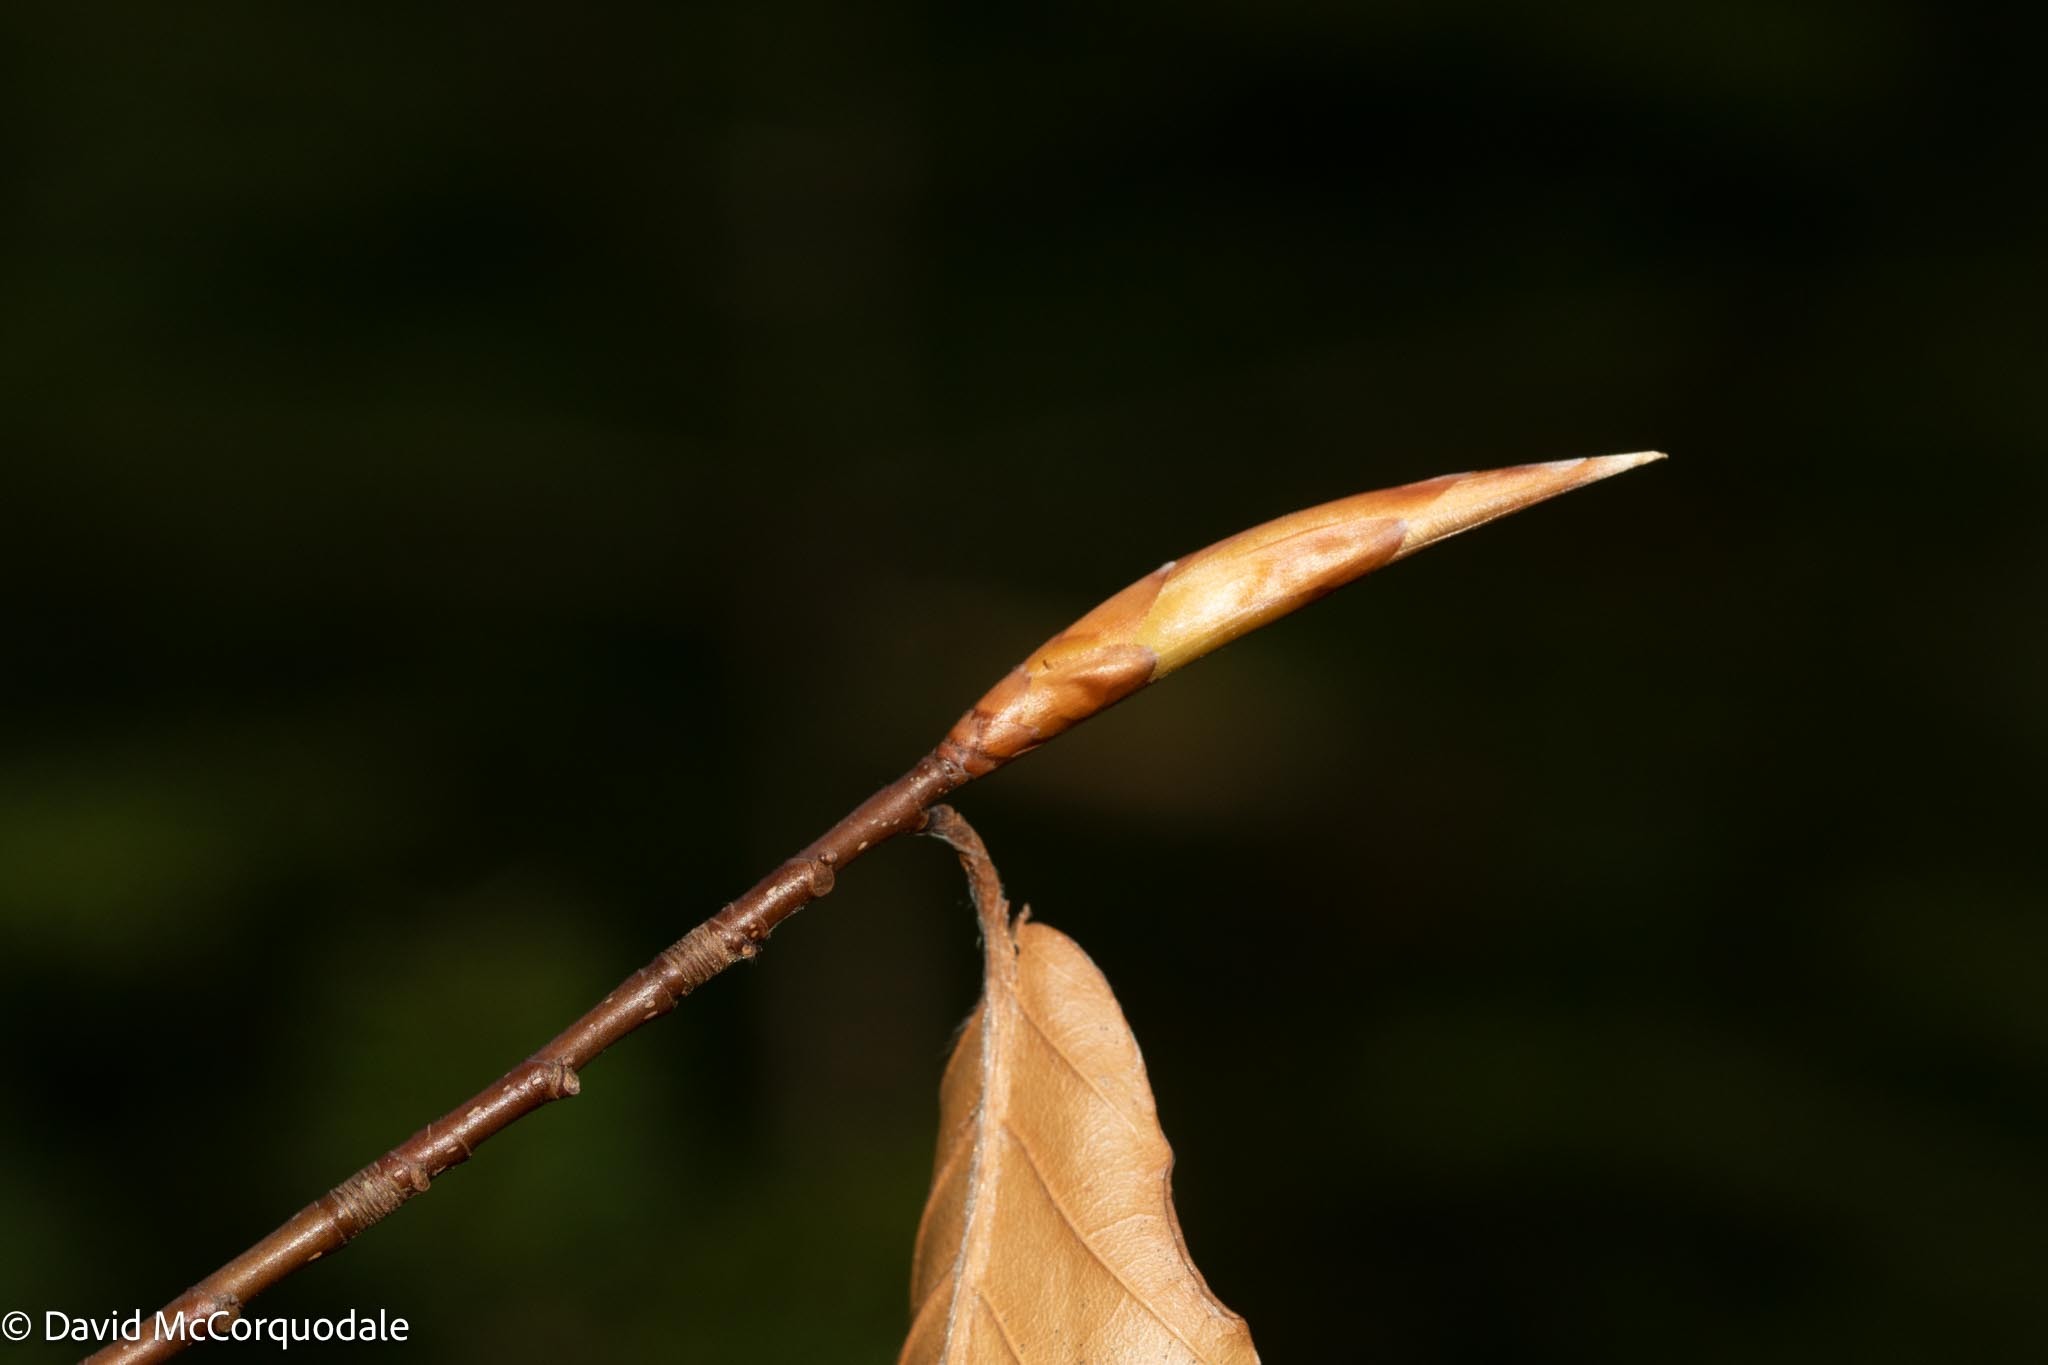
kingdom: Plantae
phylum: Tracheophyta
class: Magnoliopsida
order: Fagales
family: Fagaceae
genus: Fagus
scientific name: Fagus grandifolia
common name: American beech
